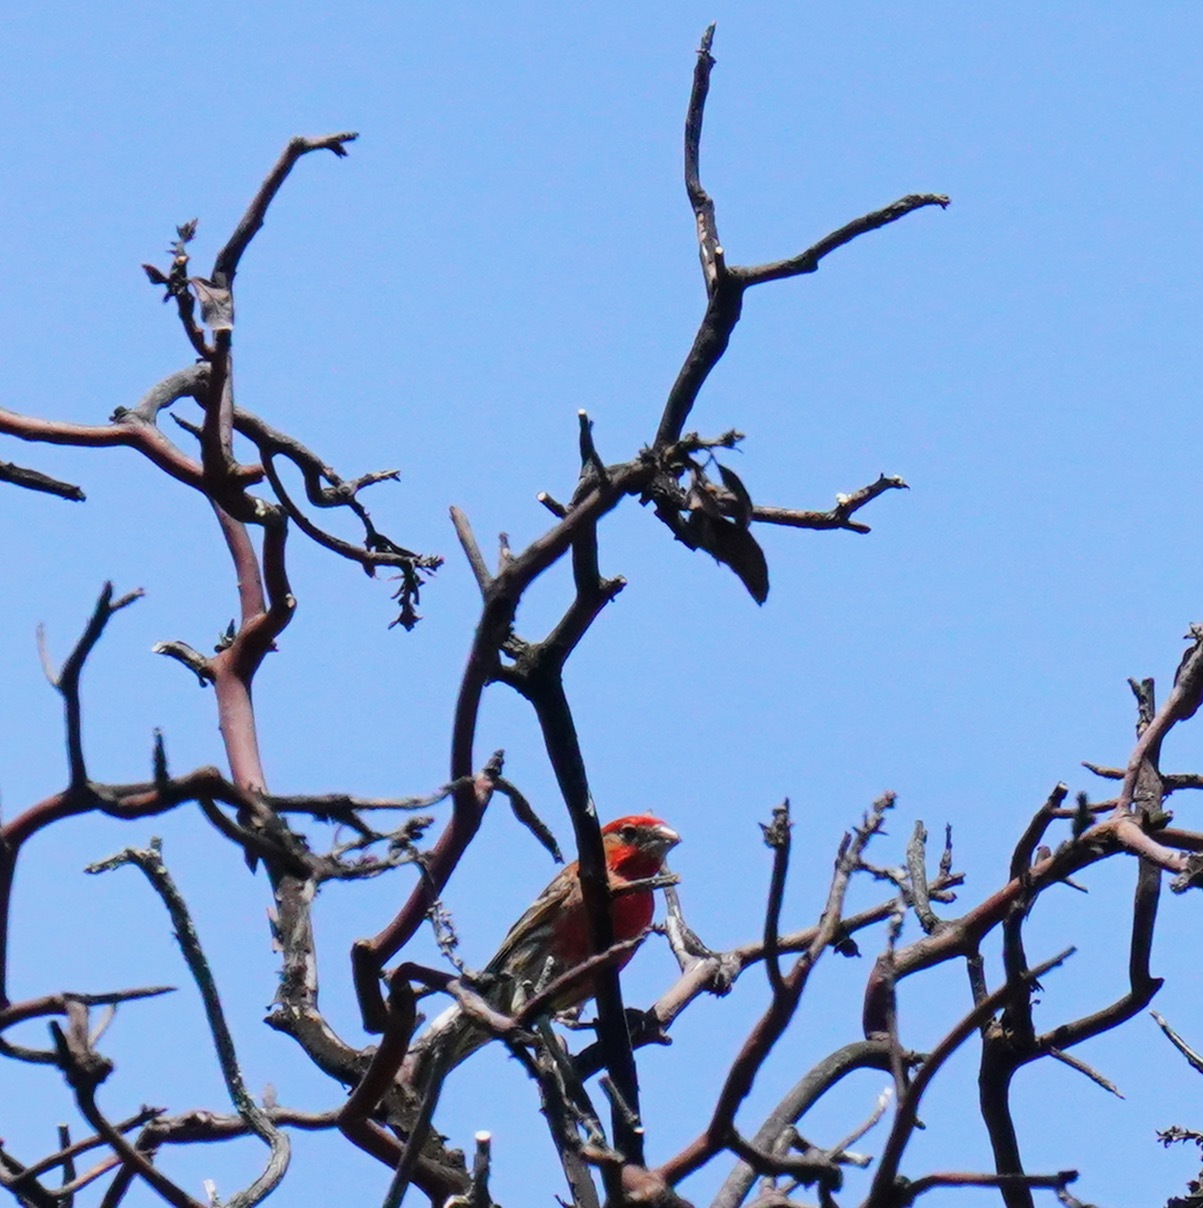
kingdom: Animalia
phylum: Chordata
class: Aves
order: Passeriformes
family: Fringillidae
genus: Haemorhous
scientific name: Haemorhous mexicanus
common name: House finch
